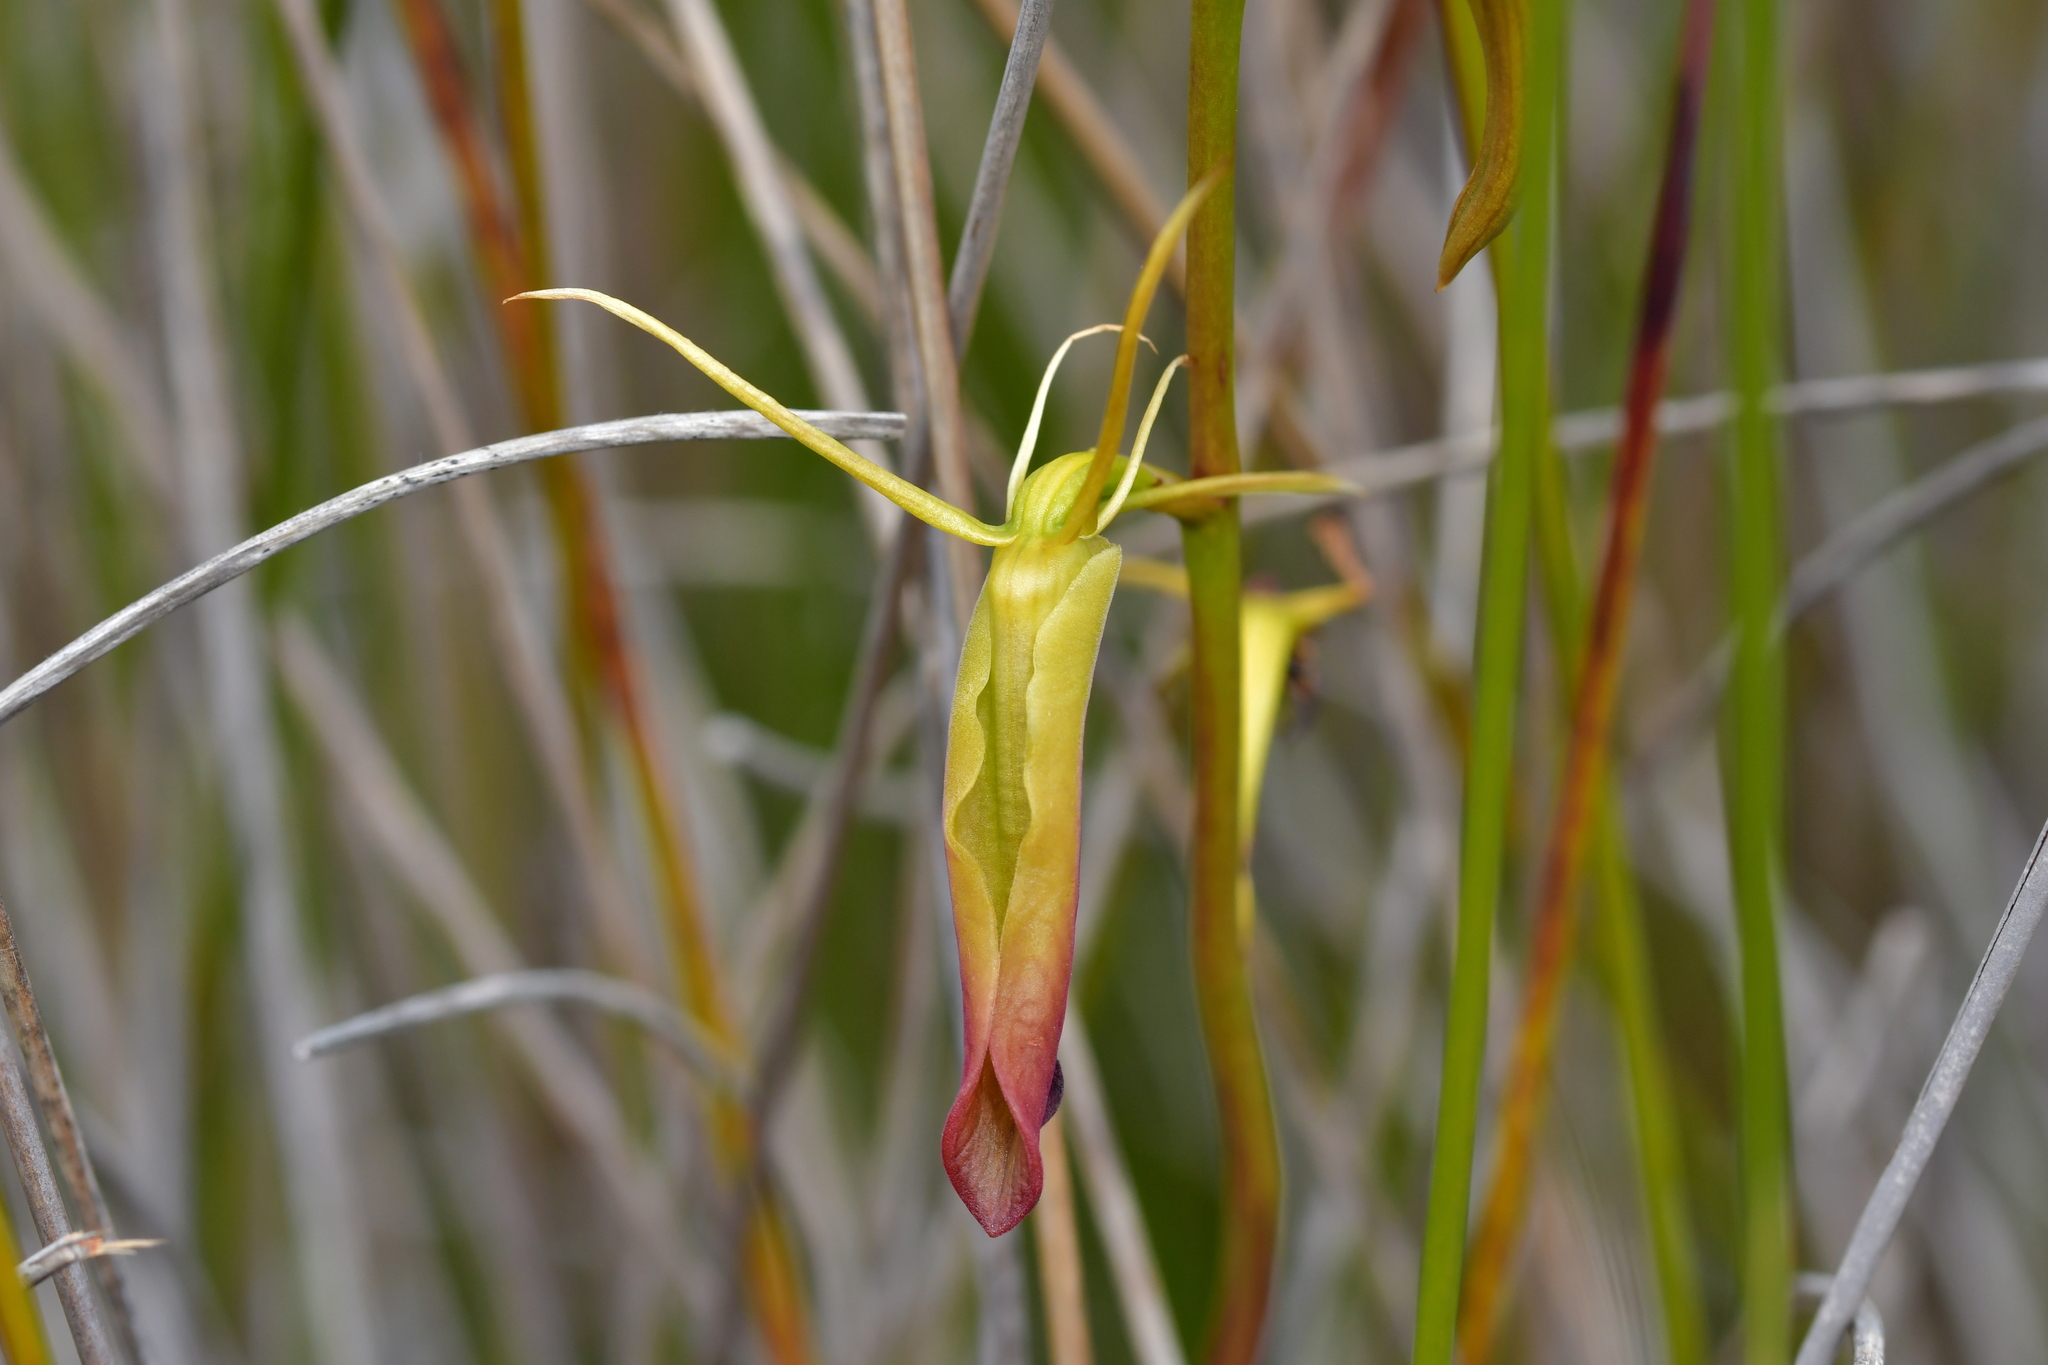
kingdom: Plantae
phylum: Tracheophyta
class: Liliopsida
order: Asparagales
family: Orchidaceae
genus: Cryptostylis
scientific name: Cryptostylis subulata
